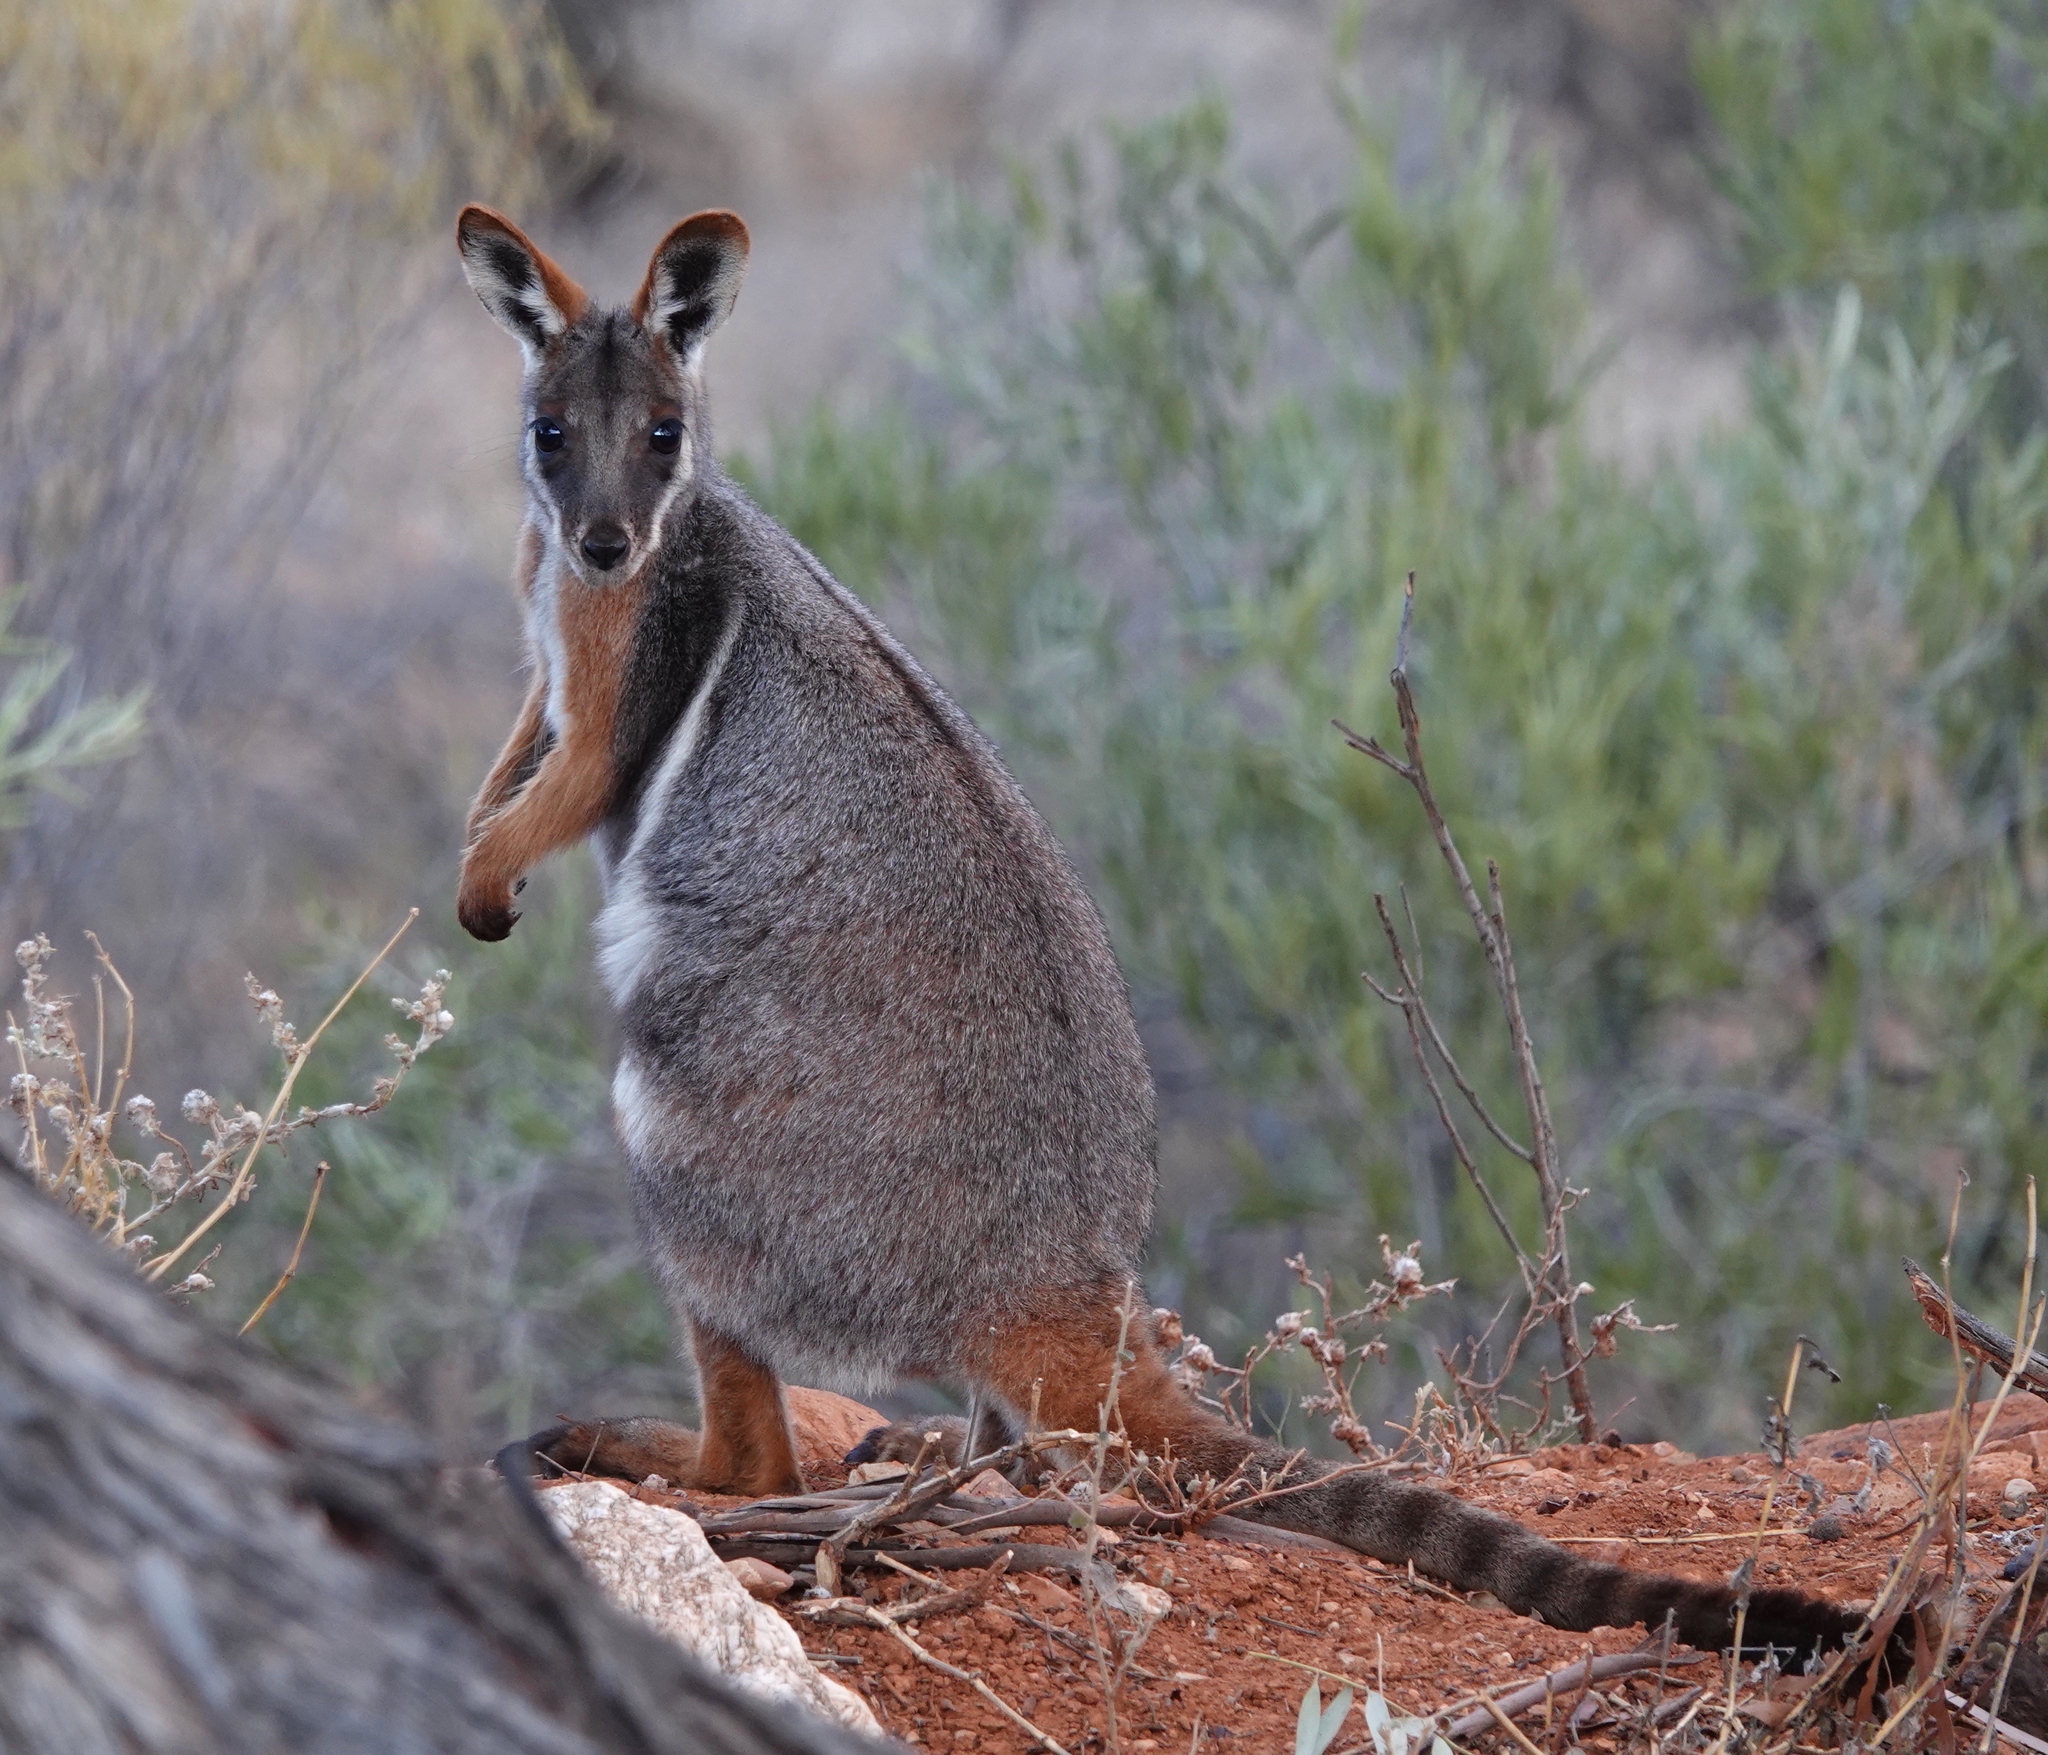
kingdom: Animalia
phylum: Chordata
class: Mammalia
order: Diprotodontia
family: Macropodidae
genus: Petrogale
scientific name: Petrogale xanthopus
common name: Yellow-footed rock-wallaby
